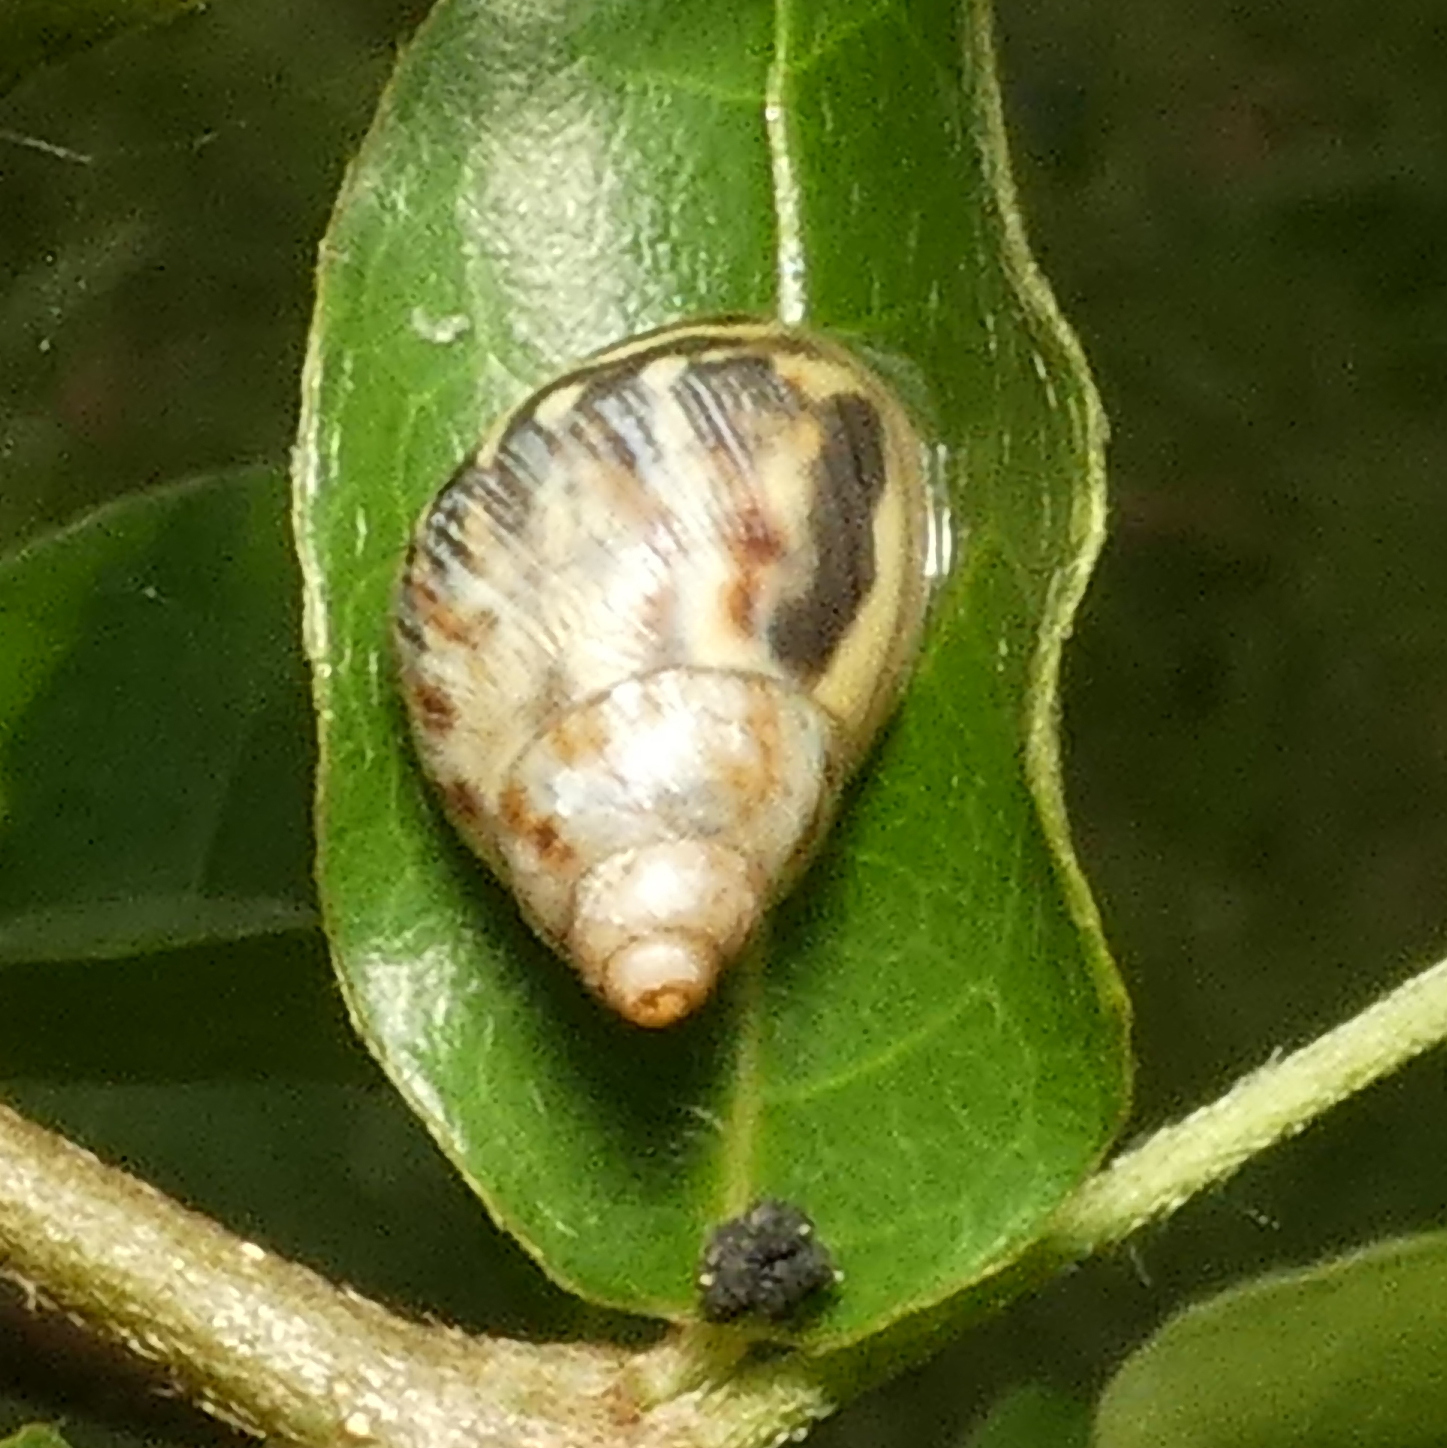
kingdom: Animalia
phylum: Mollusca
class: Gastropoda
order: Stylommatophora
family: Bulimulidae
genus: Drymaeus
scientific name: Drymaeus papyraceus
